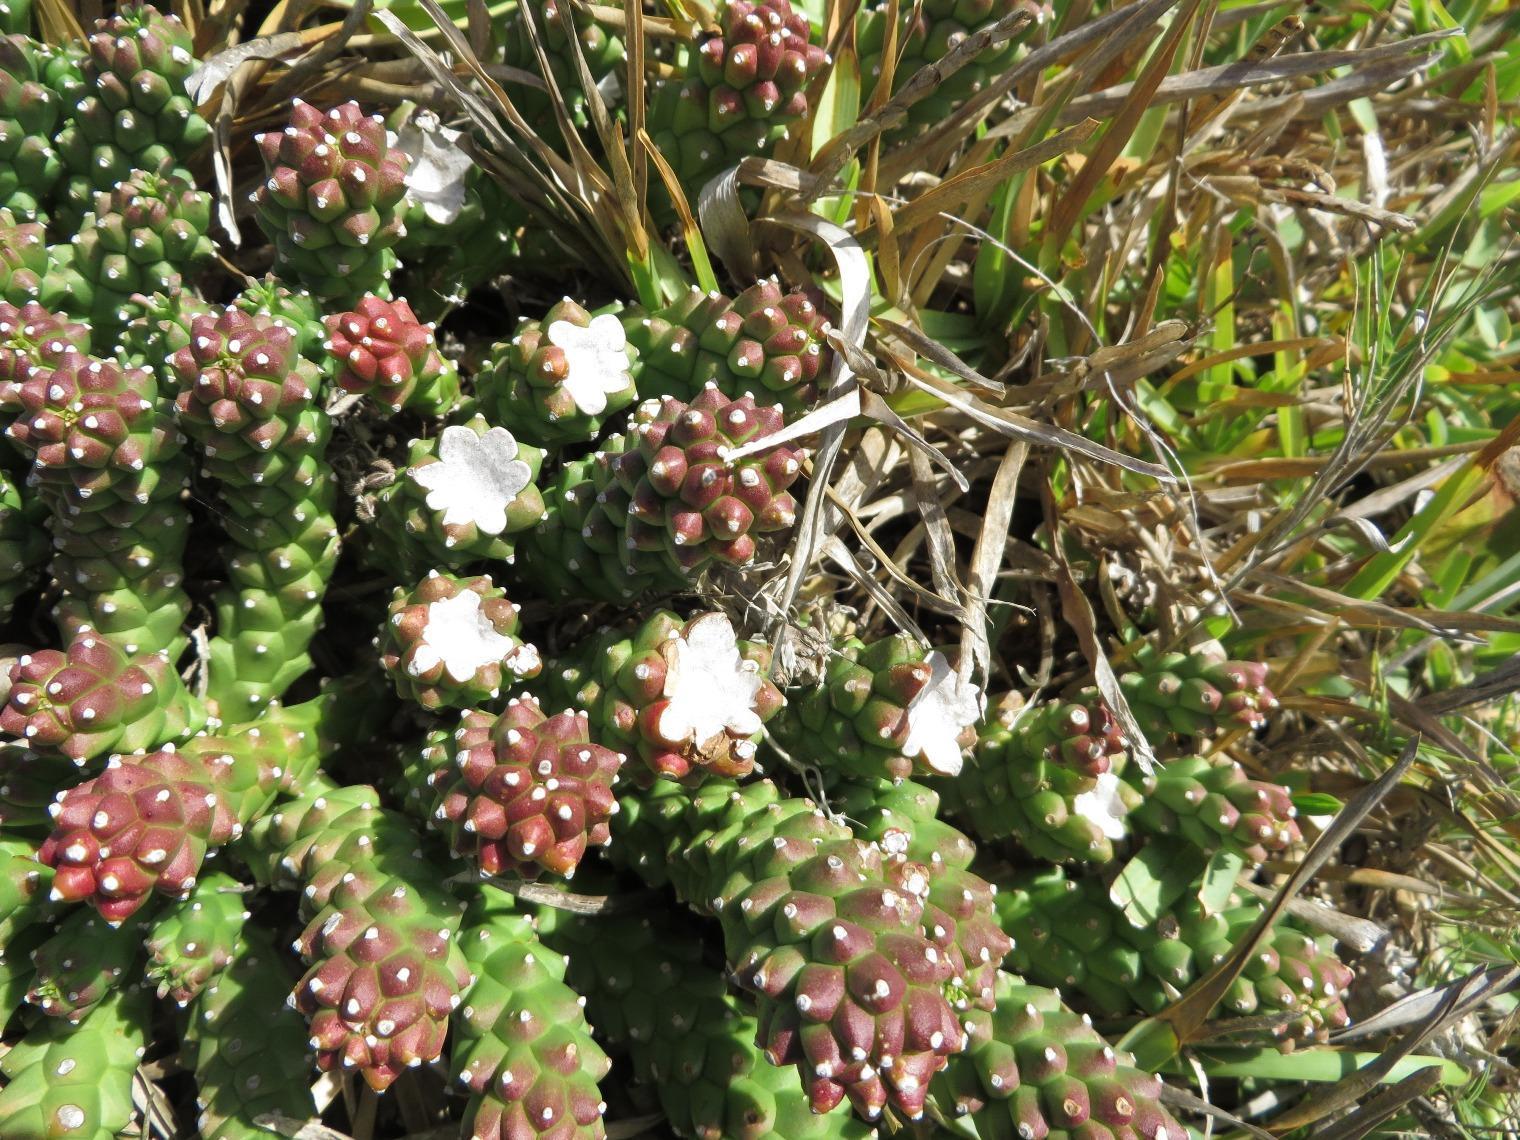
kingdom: Plantae
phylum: Tracheophyta
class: Magnoliopsida
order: Malpighiales
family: Euphorbiaceae
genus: Euphorbia
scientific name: Euphorbia caput-medusae
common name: Medusa's-head
